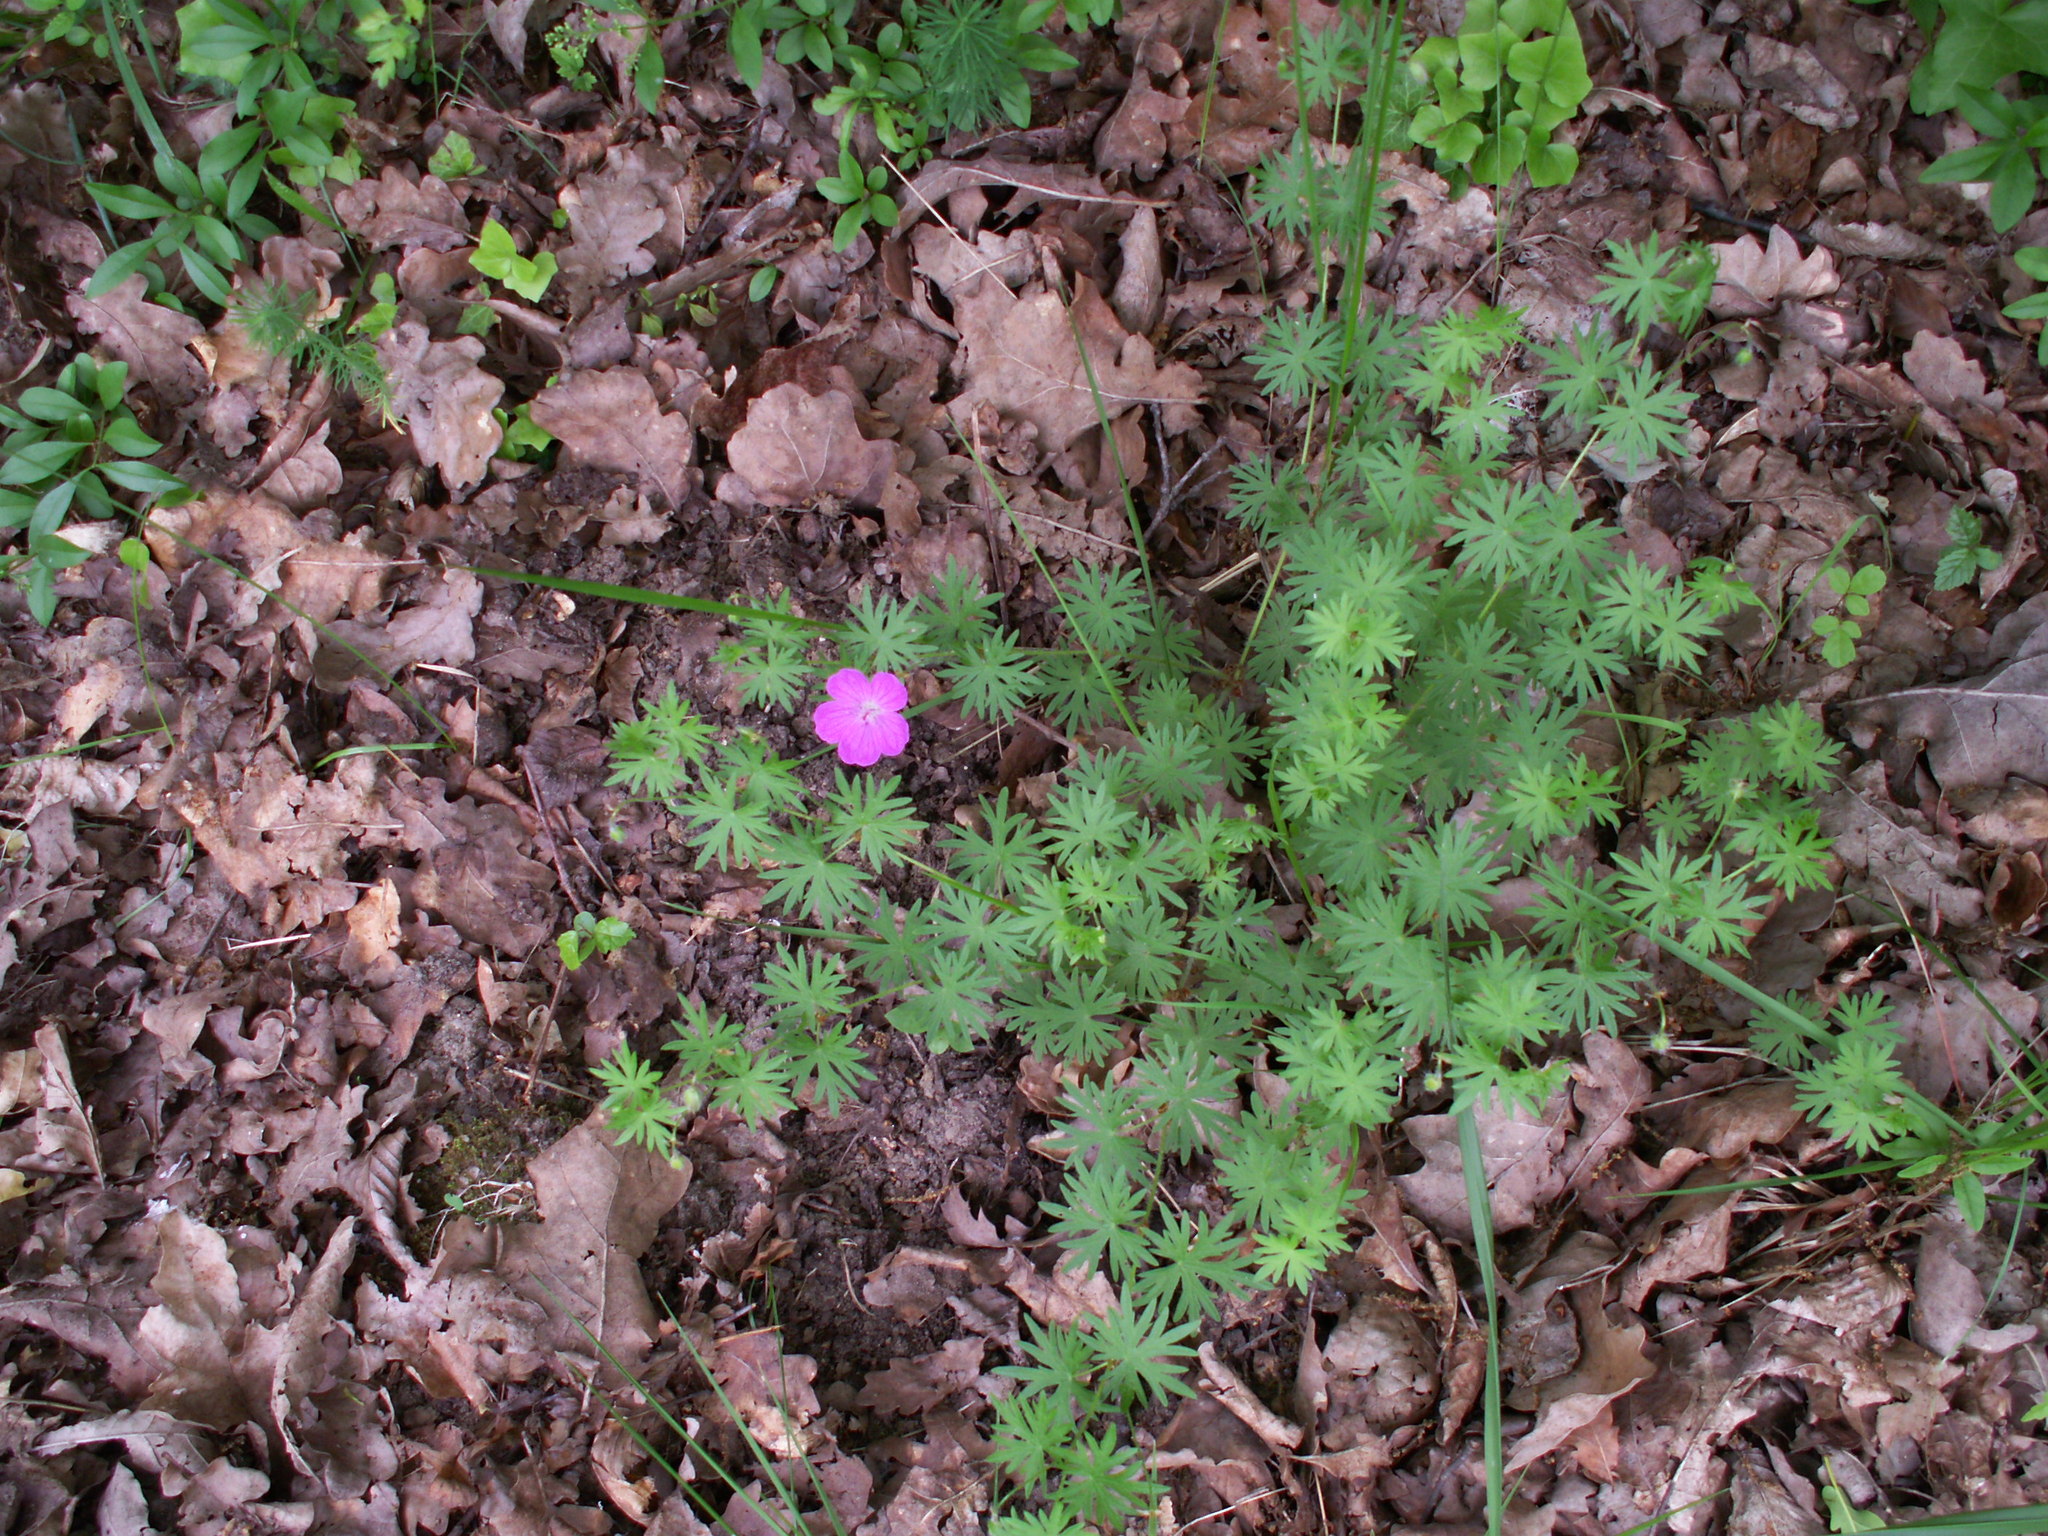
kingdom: Plantae
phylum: Tracheophyta
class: Magnoliopsida
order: Geraniales
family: Geraniaceae
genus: Geranium
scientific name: Geranium sanguineum
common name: Bloody crane's-bill
